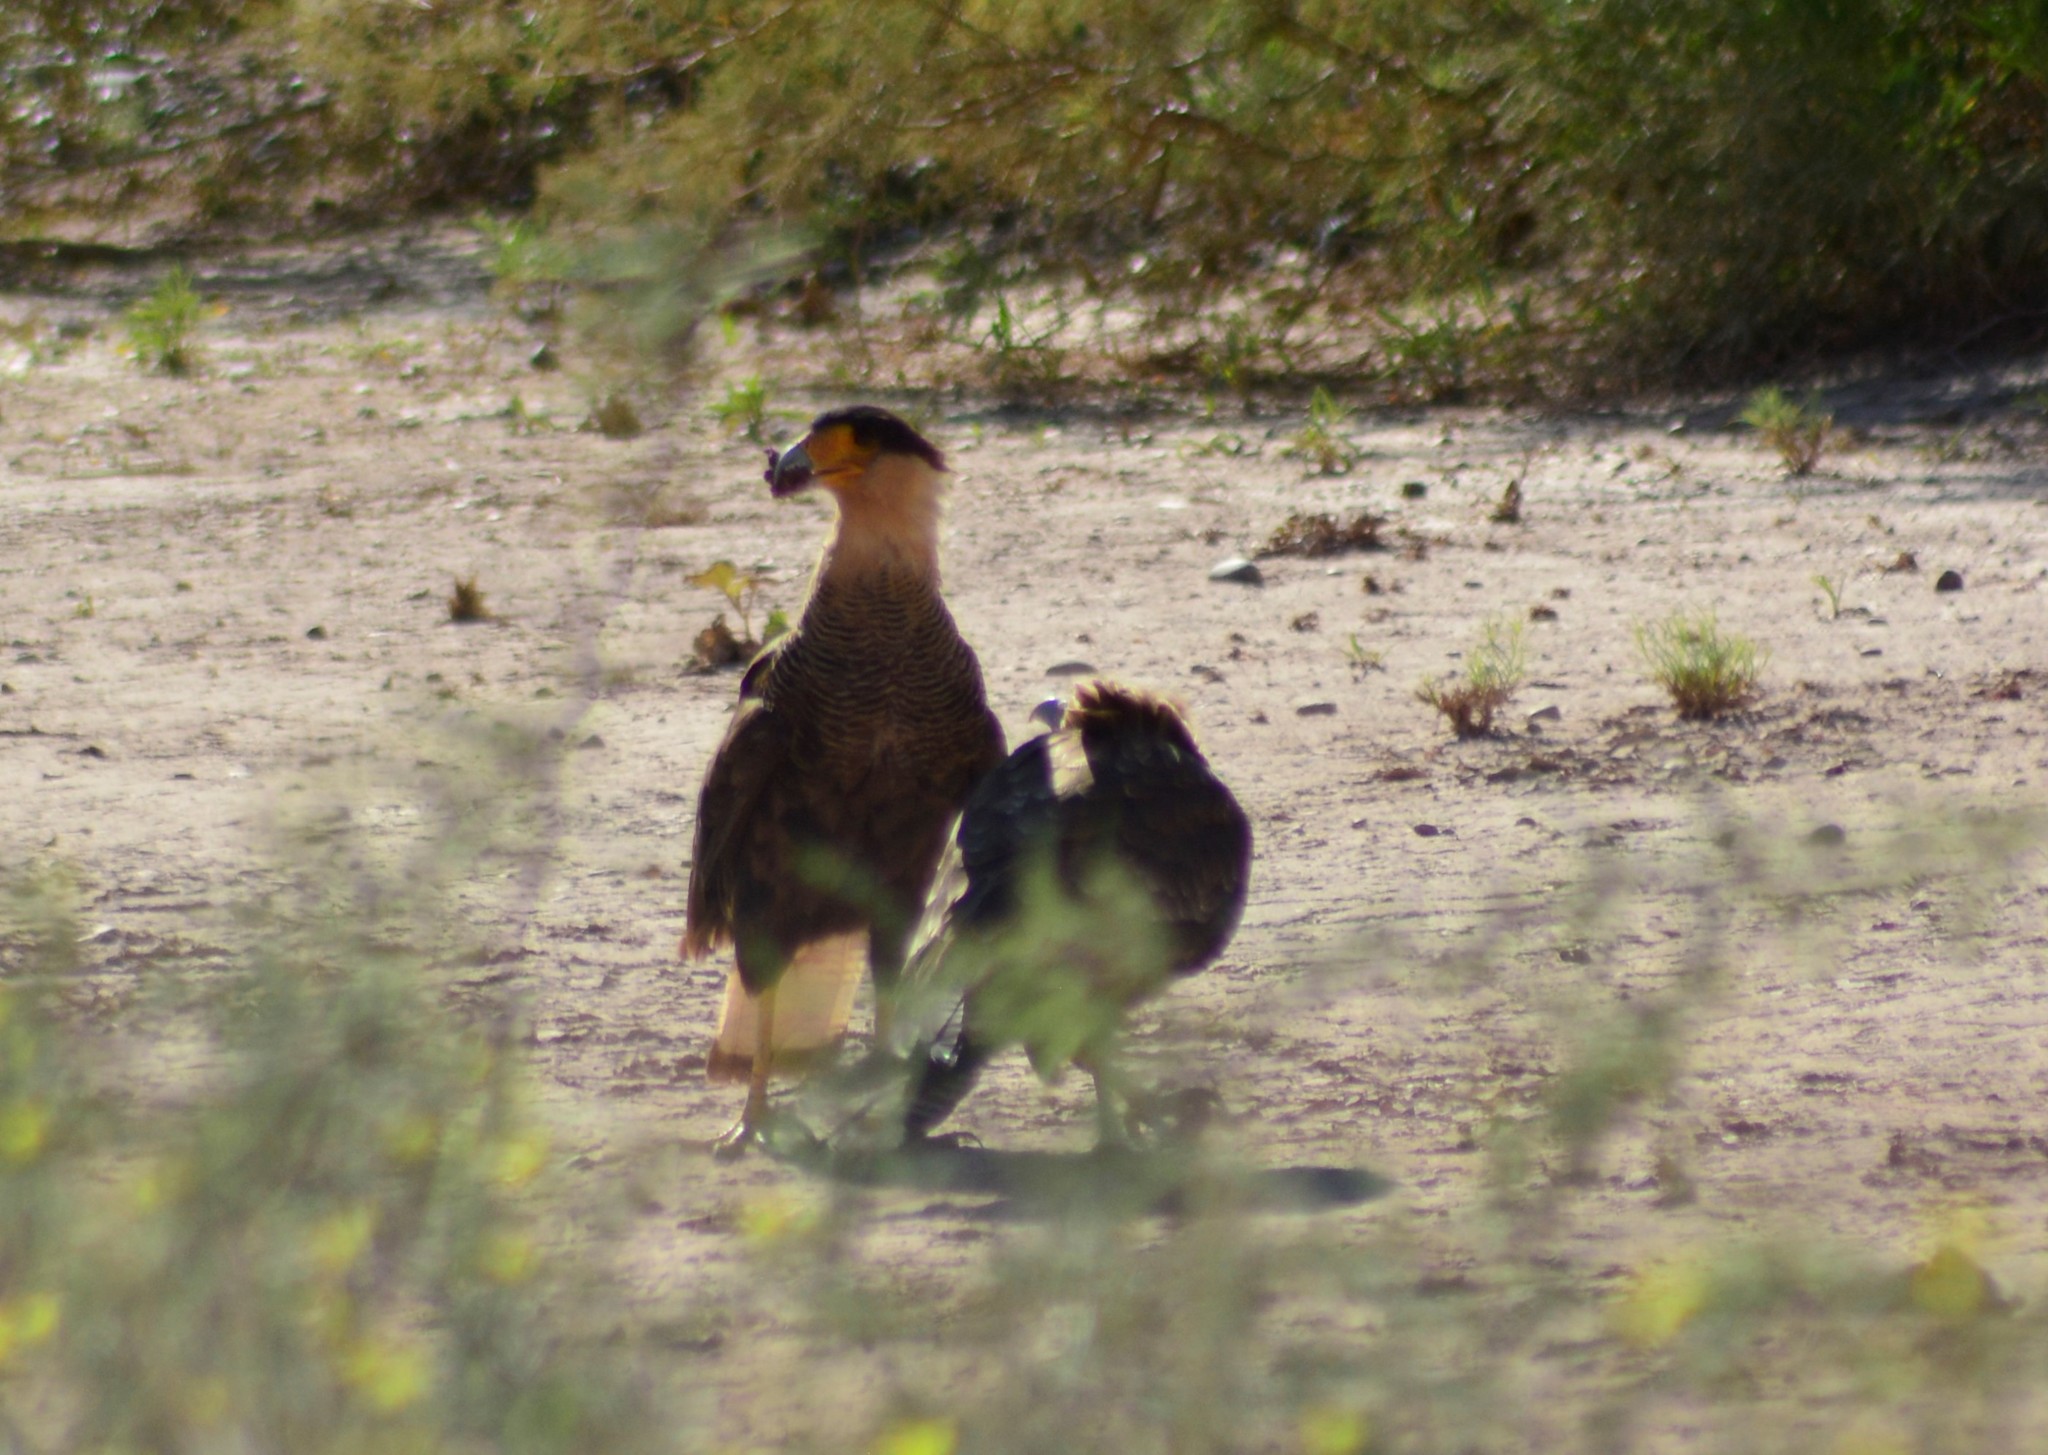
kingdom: Animalia
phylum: Chordata
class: Aves
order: Falconiformes
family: Falconidae
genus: Caracara
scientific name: Caracara plancus
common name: Southern caracara
